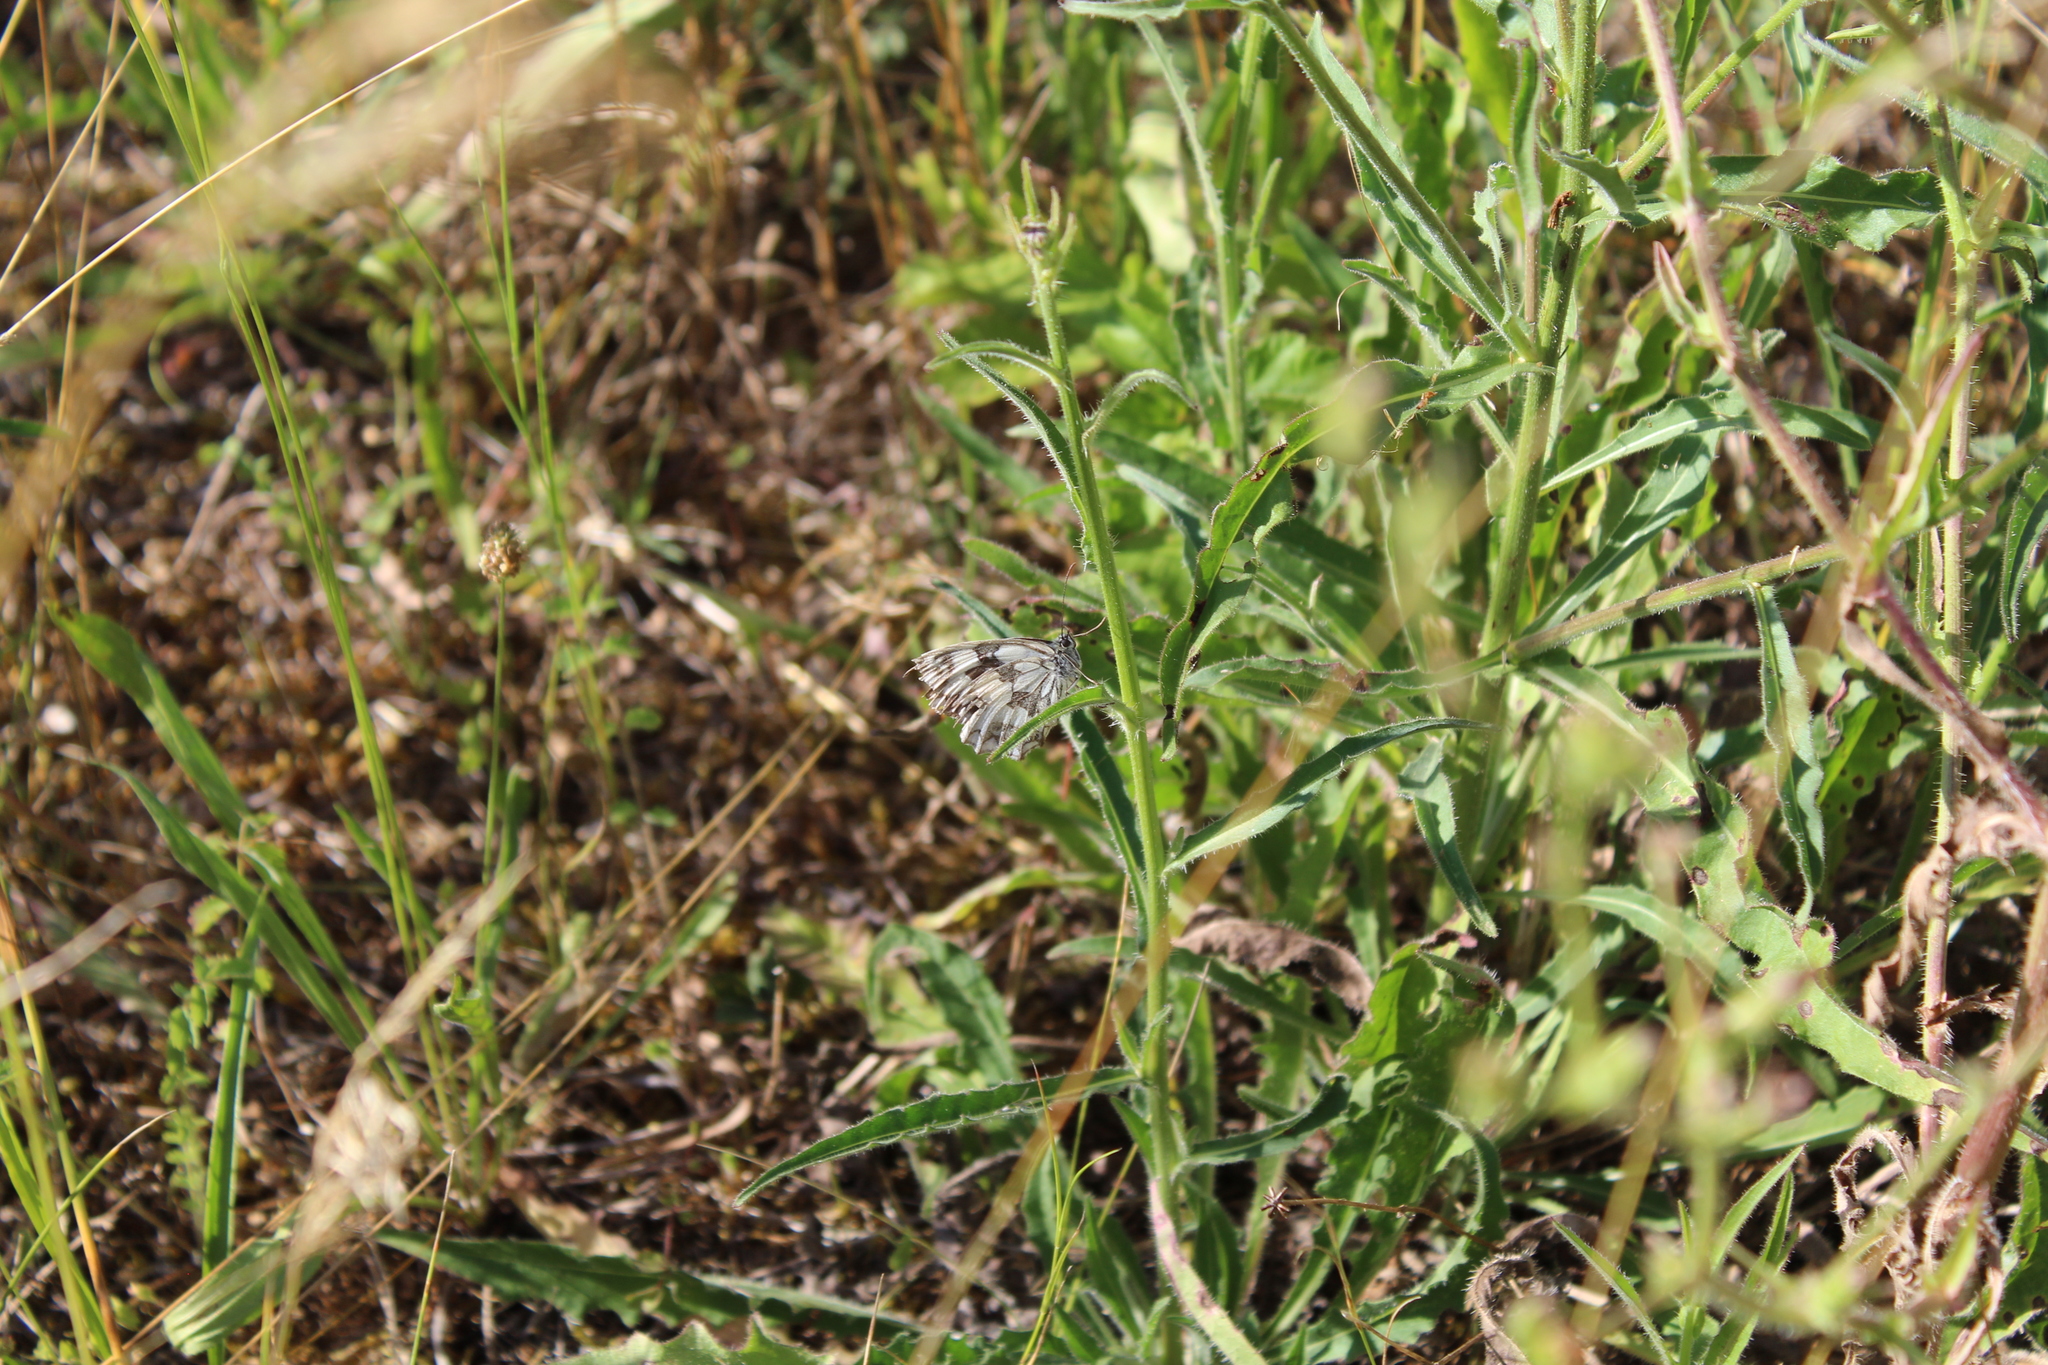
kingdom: Animalia
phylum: Arthropoda
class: Insecta
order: Lepidoptera
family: Nymphalidae
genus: Melanargia
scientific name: Melanargia galathea
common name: Marbled white
